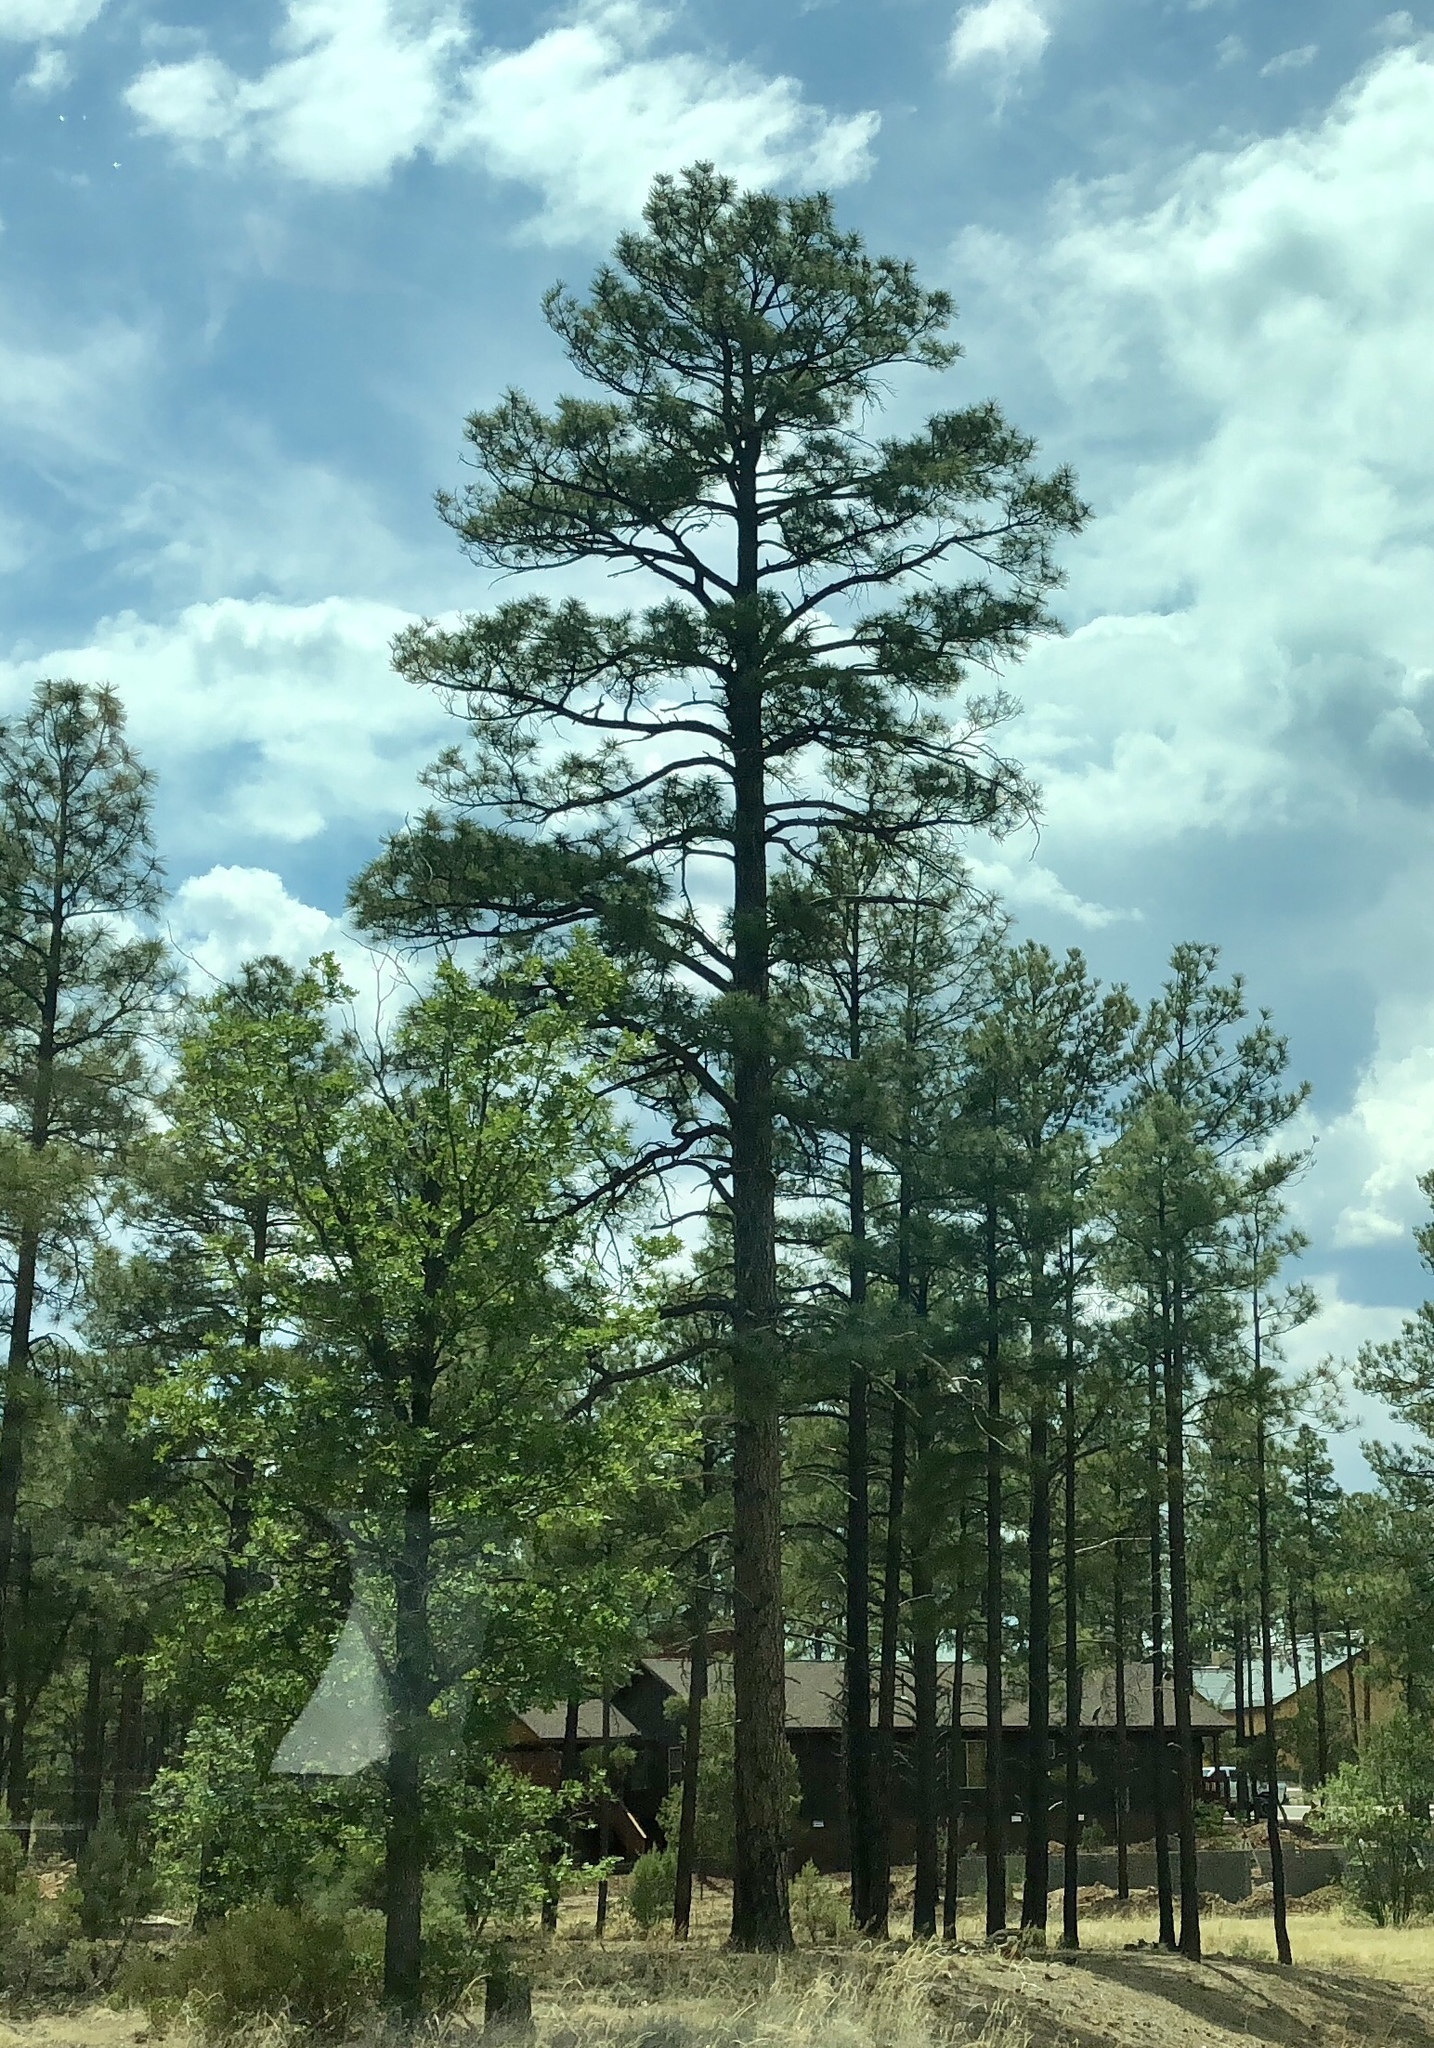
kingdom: Plantae
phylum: Tracheophyta
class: Pinopsida
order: Pinales
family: Pinaceae
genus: Pinus
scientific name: Pinus ponderosa
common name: Western yellow-pine
